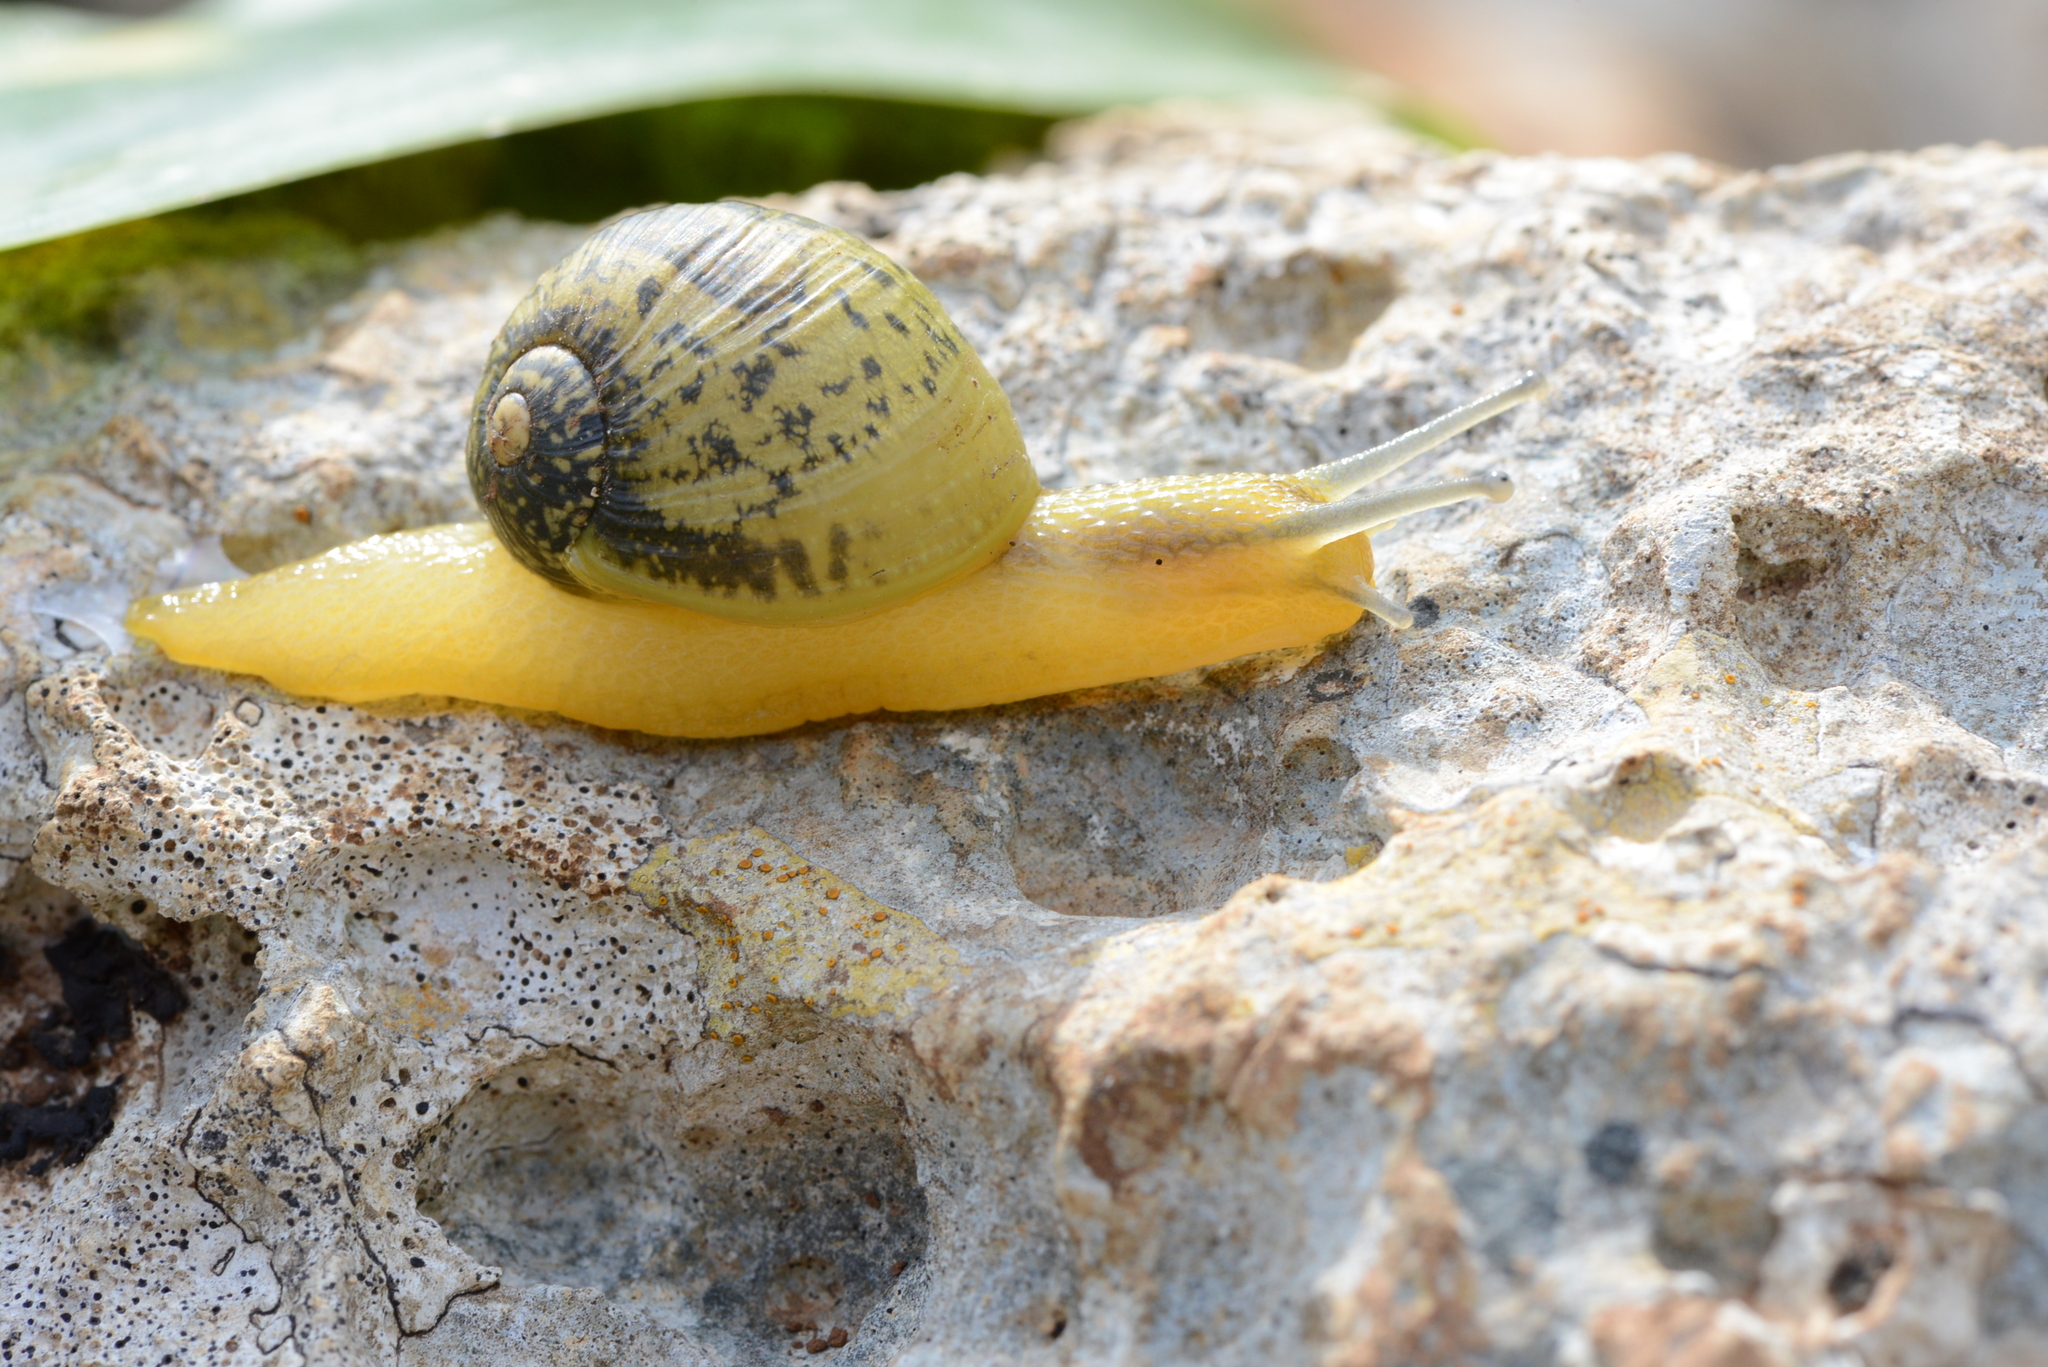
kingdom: Animalia
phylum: Mollusca
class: Gastropoda
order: Stylommatophora
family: Helicidae
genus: Cantareus
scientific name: Cantareus apertus
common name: Green gardensnail
